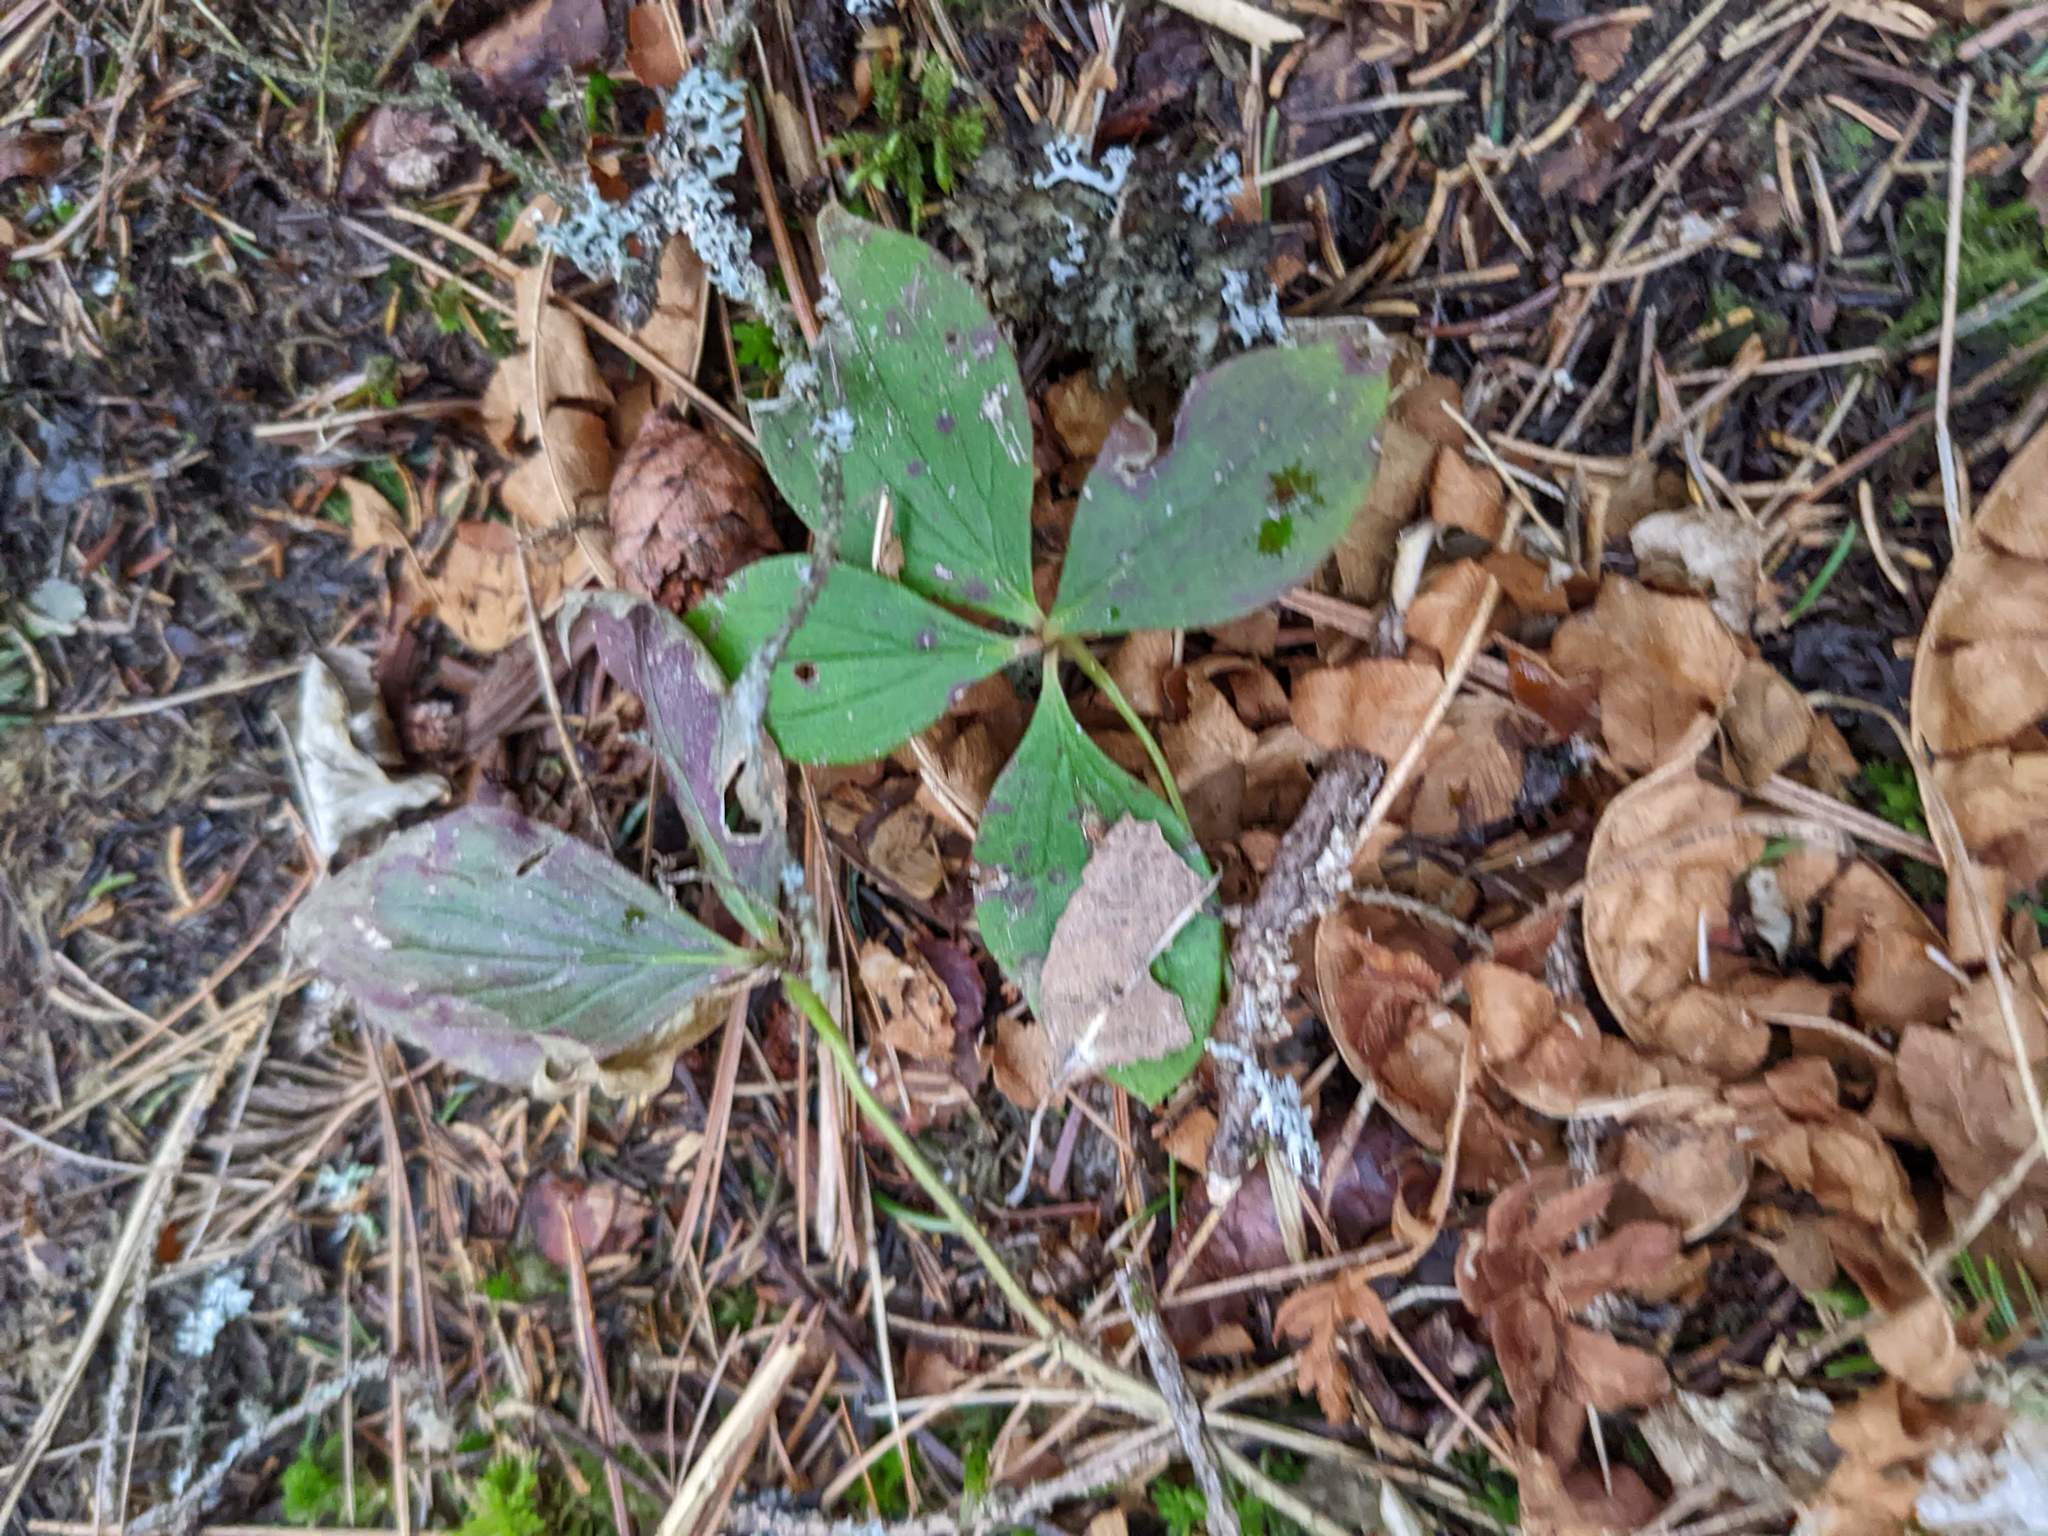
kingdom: Plantae
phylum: Tracheophyta
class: Magnoliopsida
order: Cornales
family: Cornaceae
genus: Cornus
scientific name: Cornus canadensis
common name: Creeping dogwood
